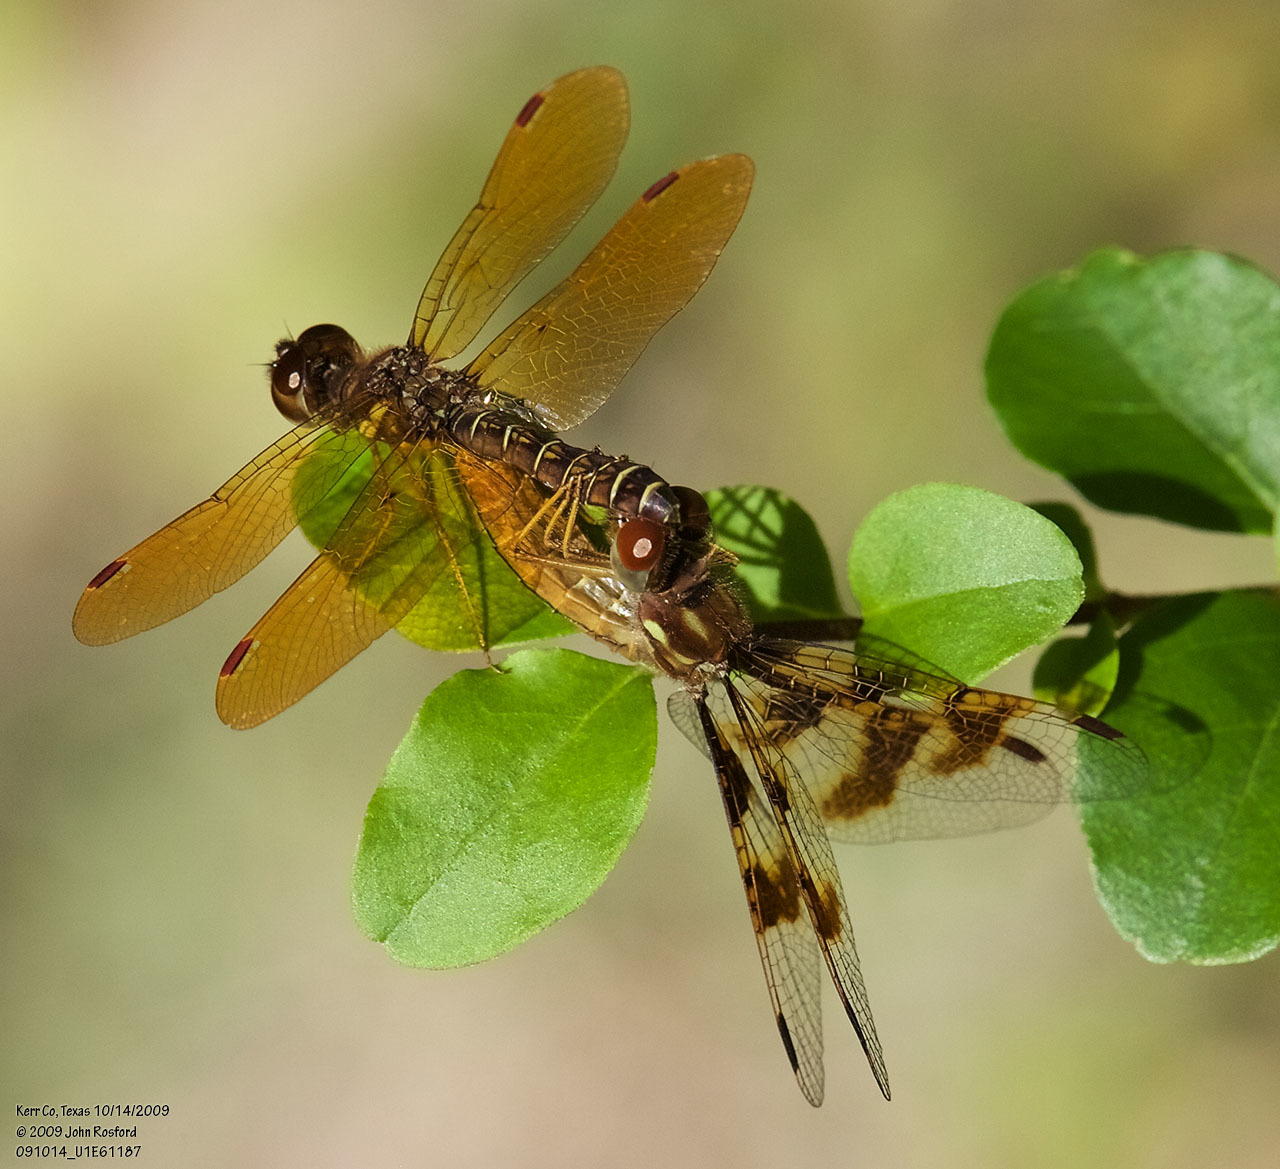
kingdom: Animalia
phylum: Arthropoda
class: Insecta
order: Odonata
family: Libellulidae
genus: Perithemis
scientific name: Perithemis tenera
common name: Eastern amberwing
